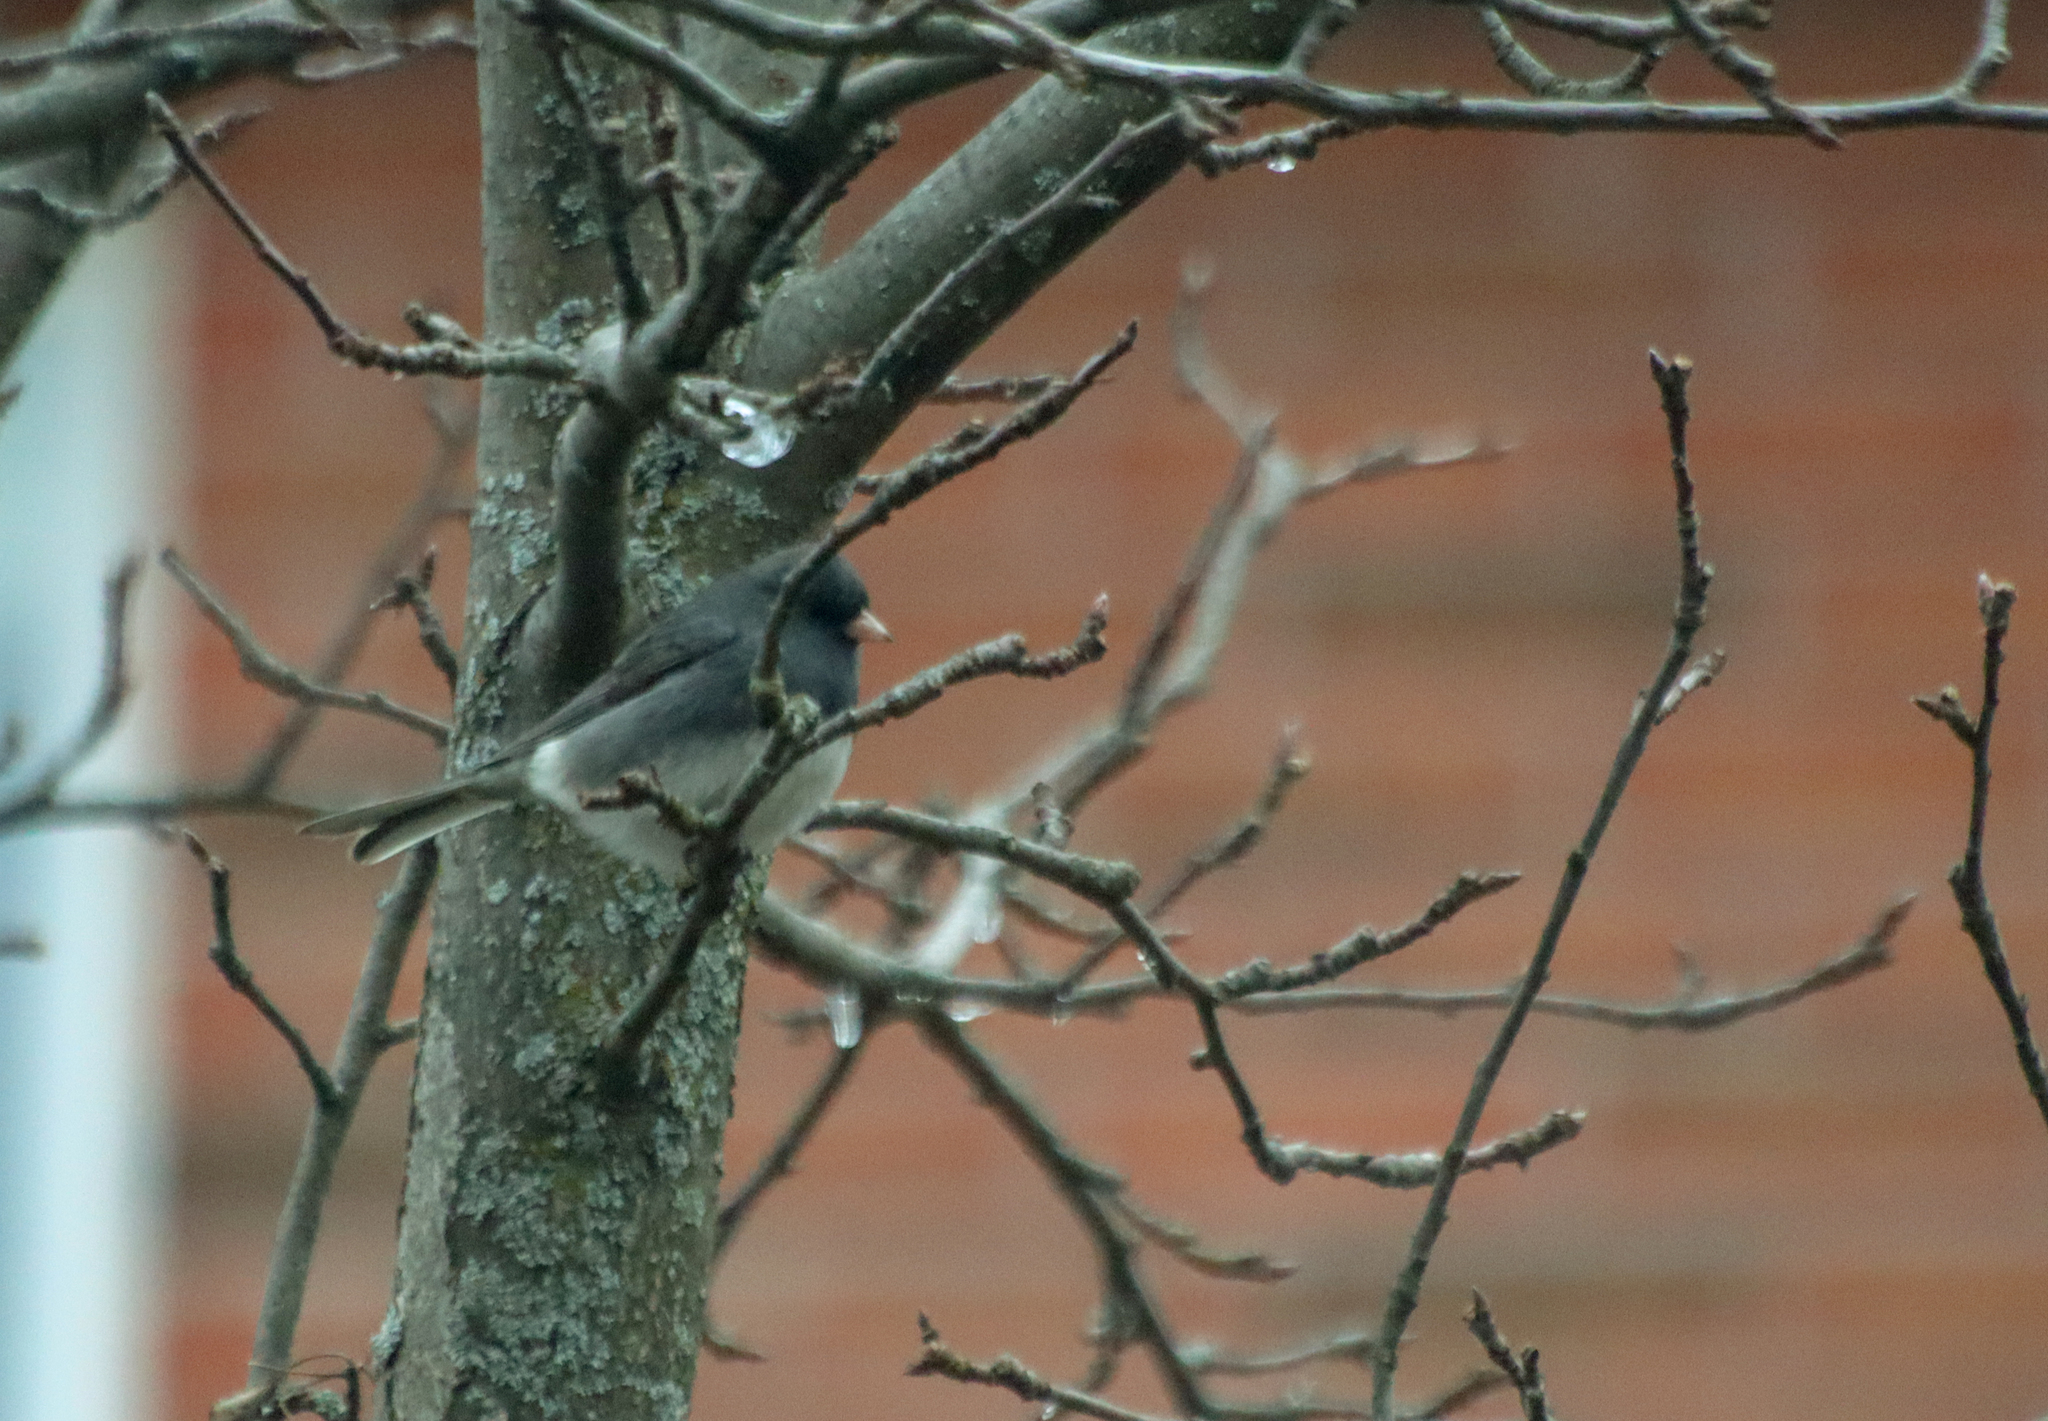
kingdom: Animalia
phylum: Chordata
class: Aves
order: Passeriformes
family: Passerellidae
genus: Junco
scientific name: Junco hyemalis
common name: Dark-eyed junco
